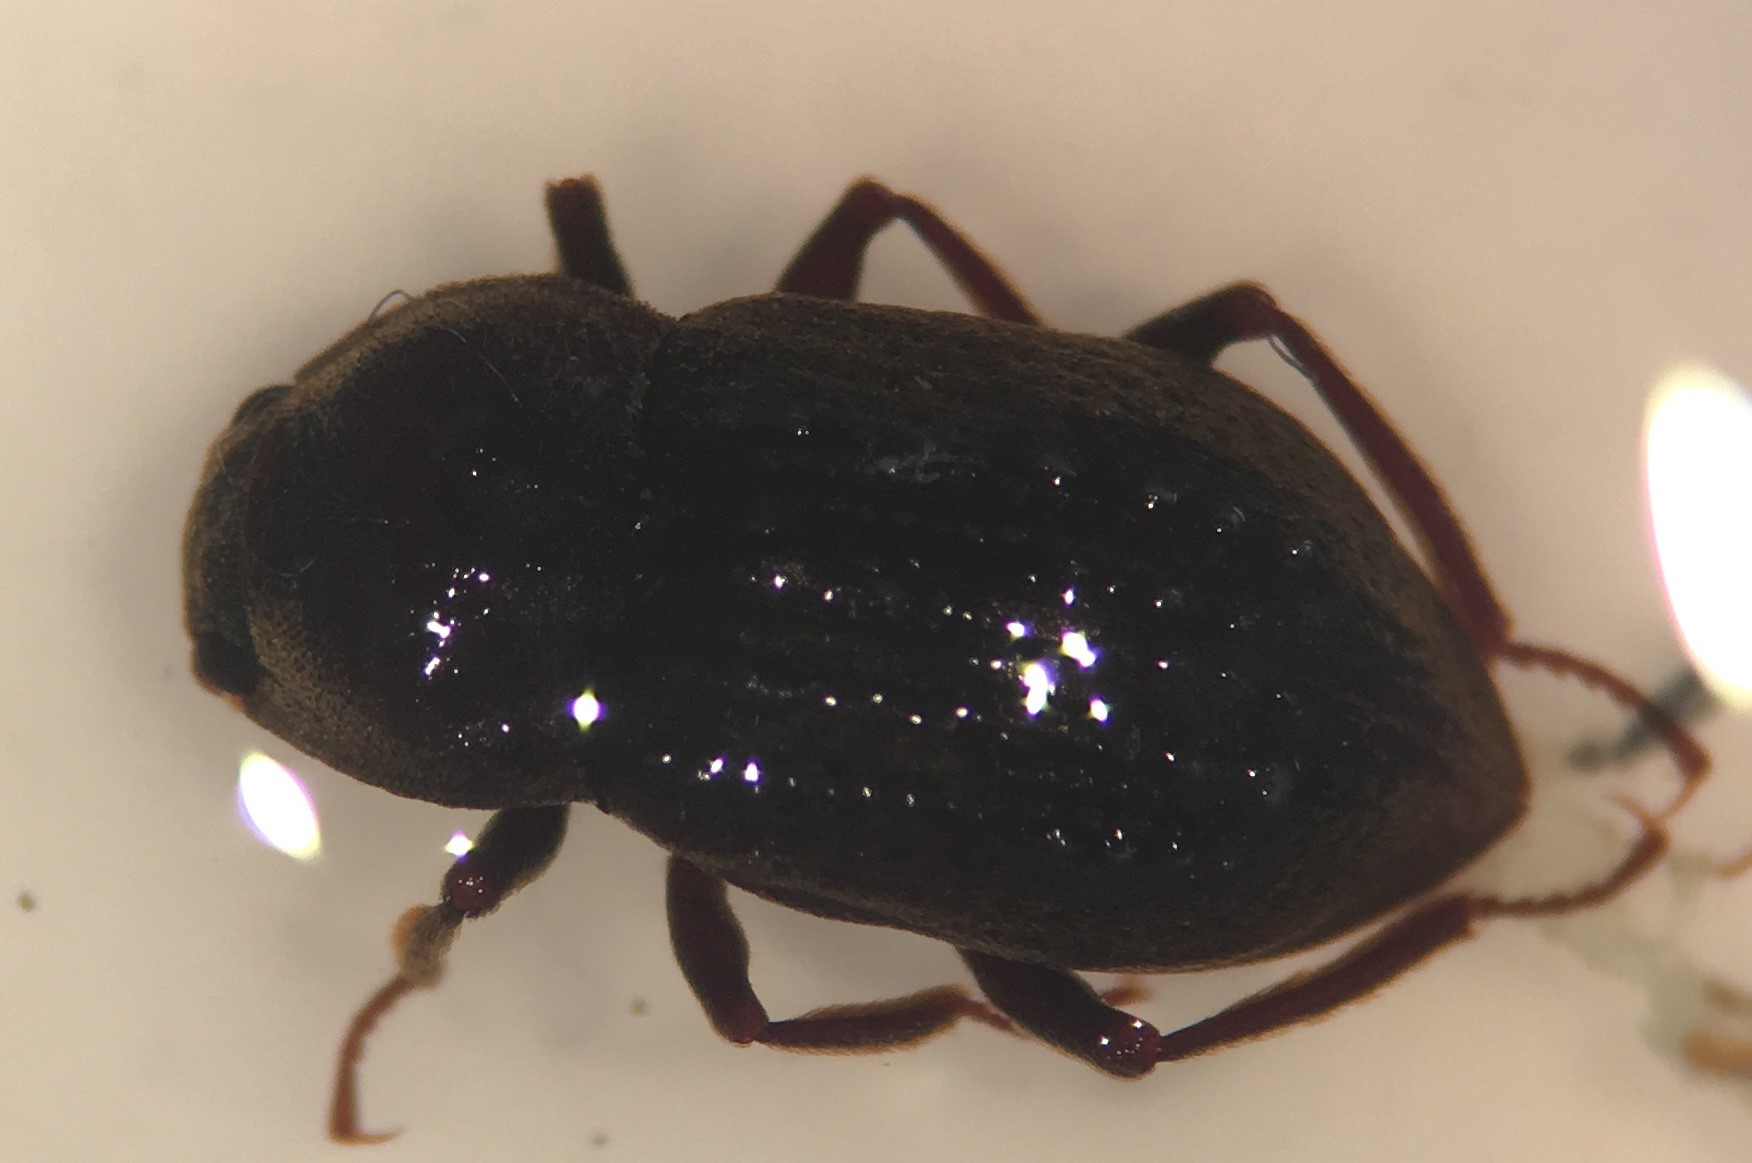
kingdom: Animalia
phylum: Arthropoda
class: Insecta
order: Coleoptera
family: Dryopidae
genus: Helichus
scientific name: Helichus fastigiatus
